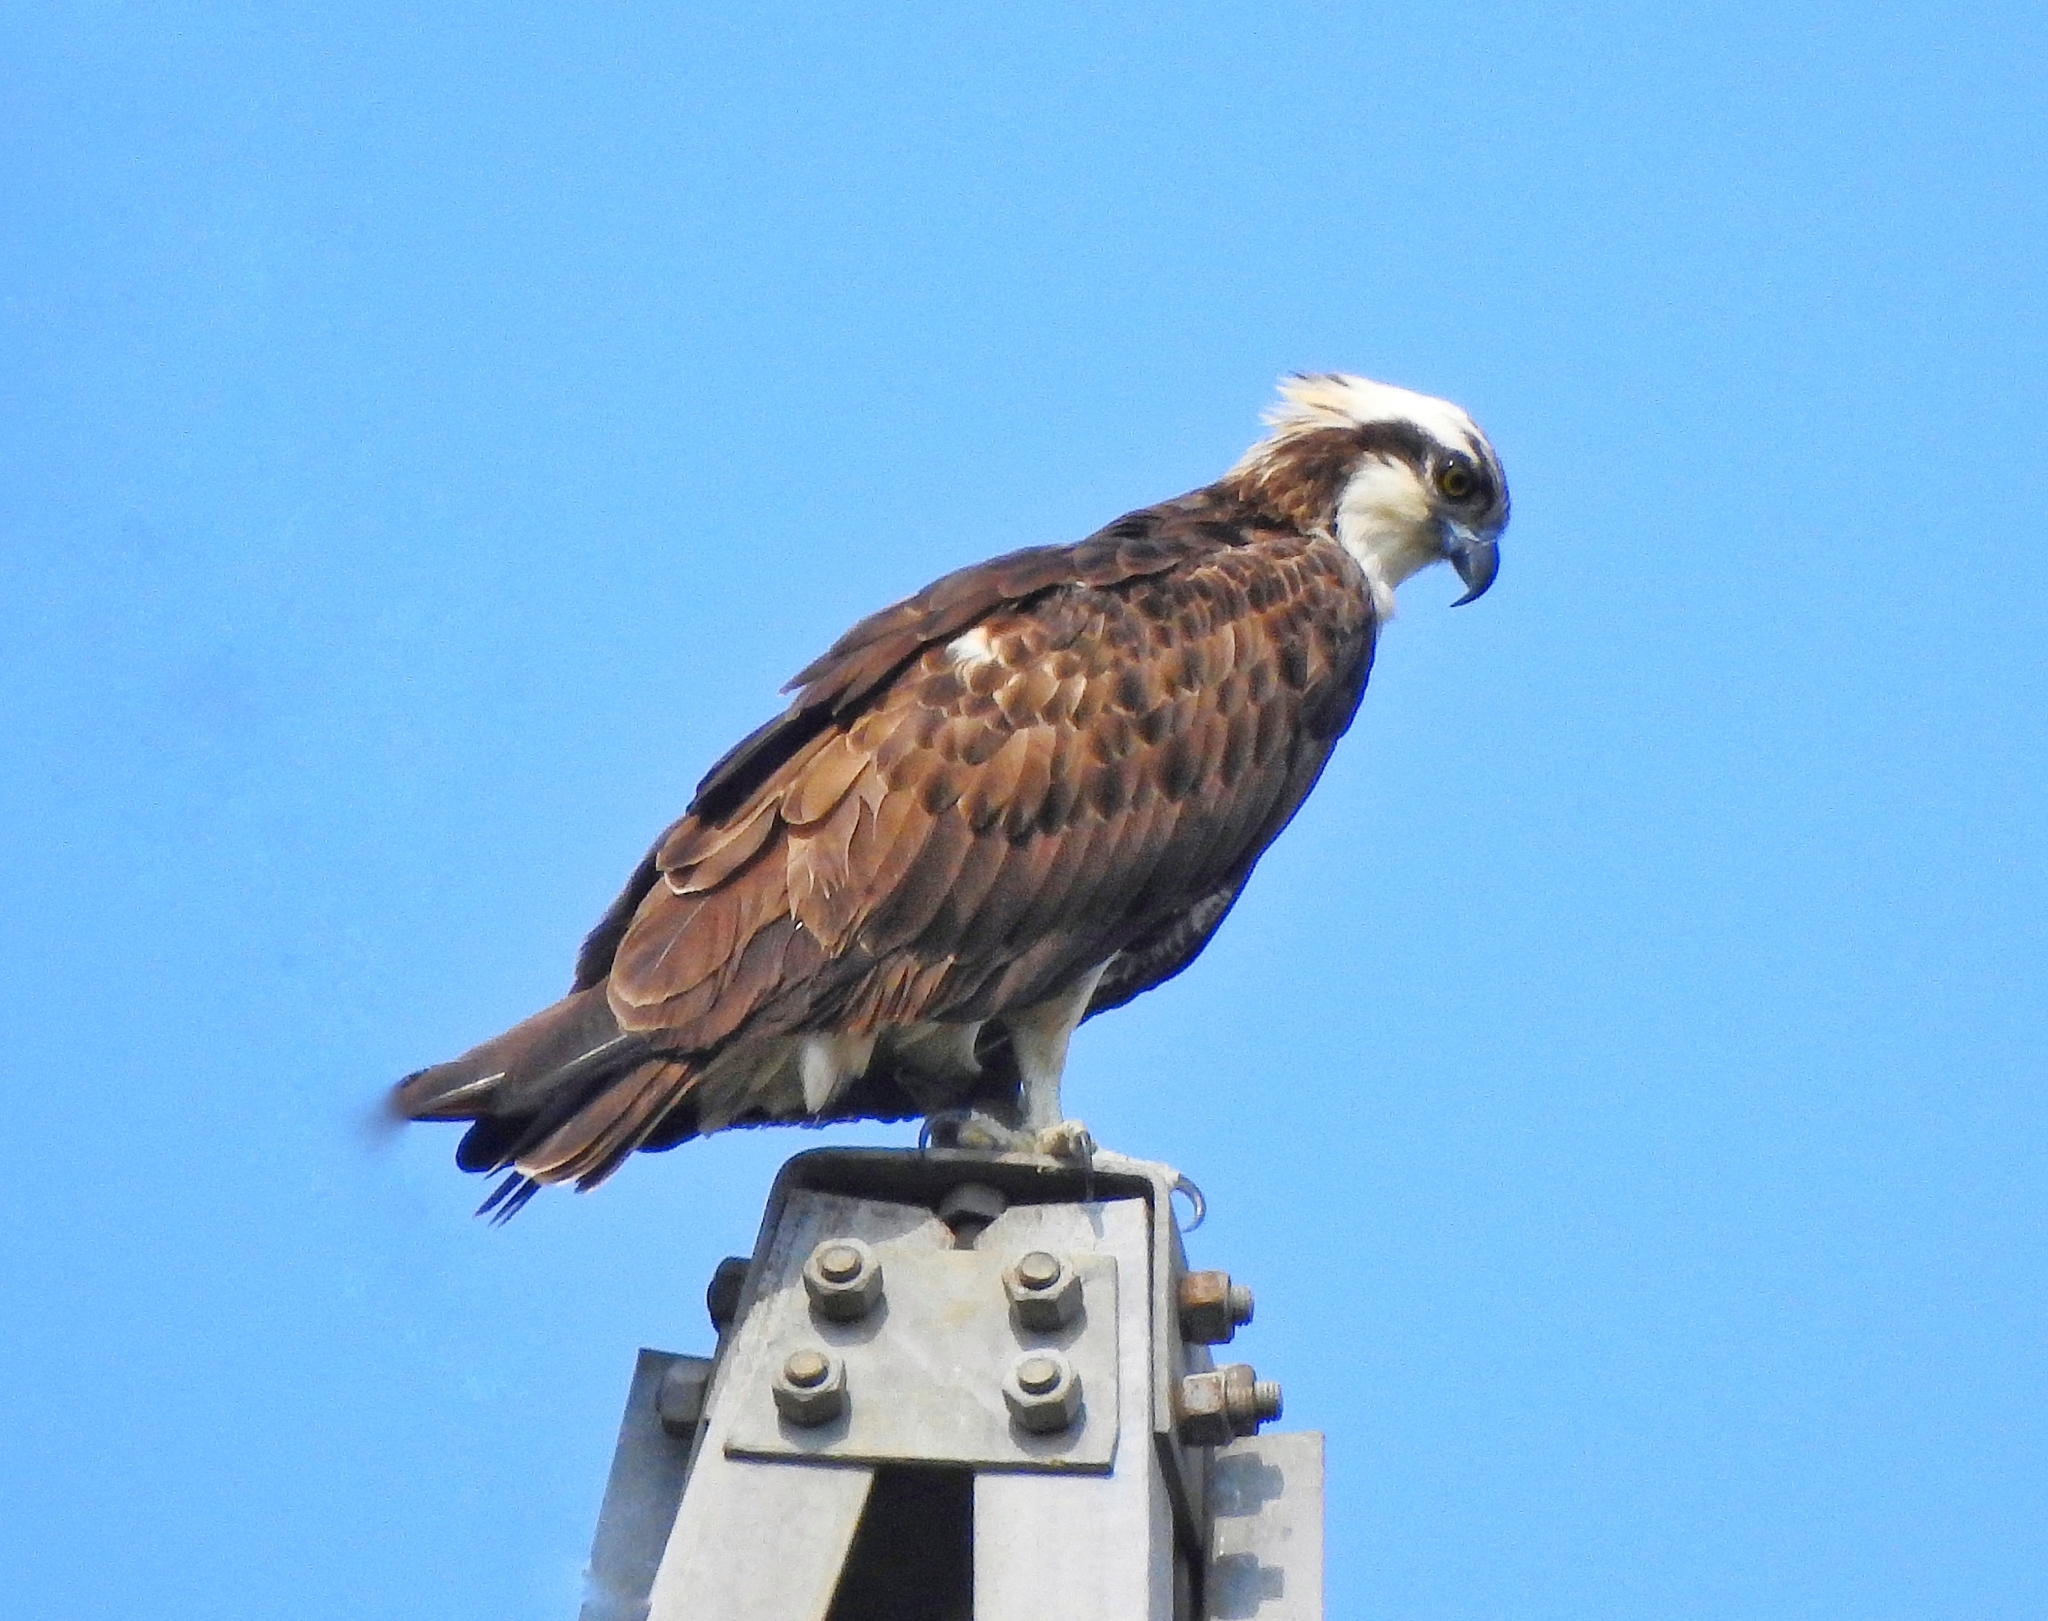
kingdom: Animalia
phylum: Chordata
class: Aves
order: Accipitriformes
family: Pandionidae
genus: Pandion
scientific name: Pandion haliaetus
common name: Osprey
